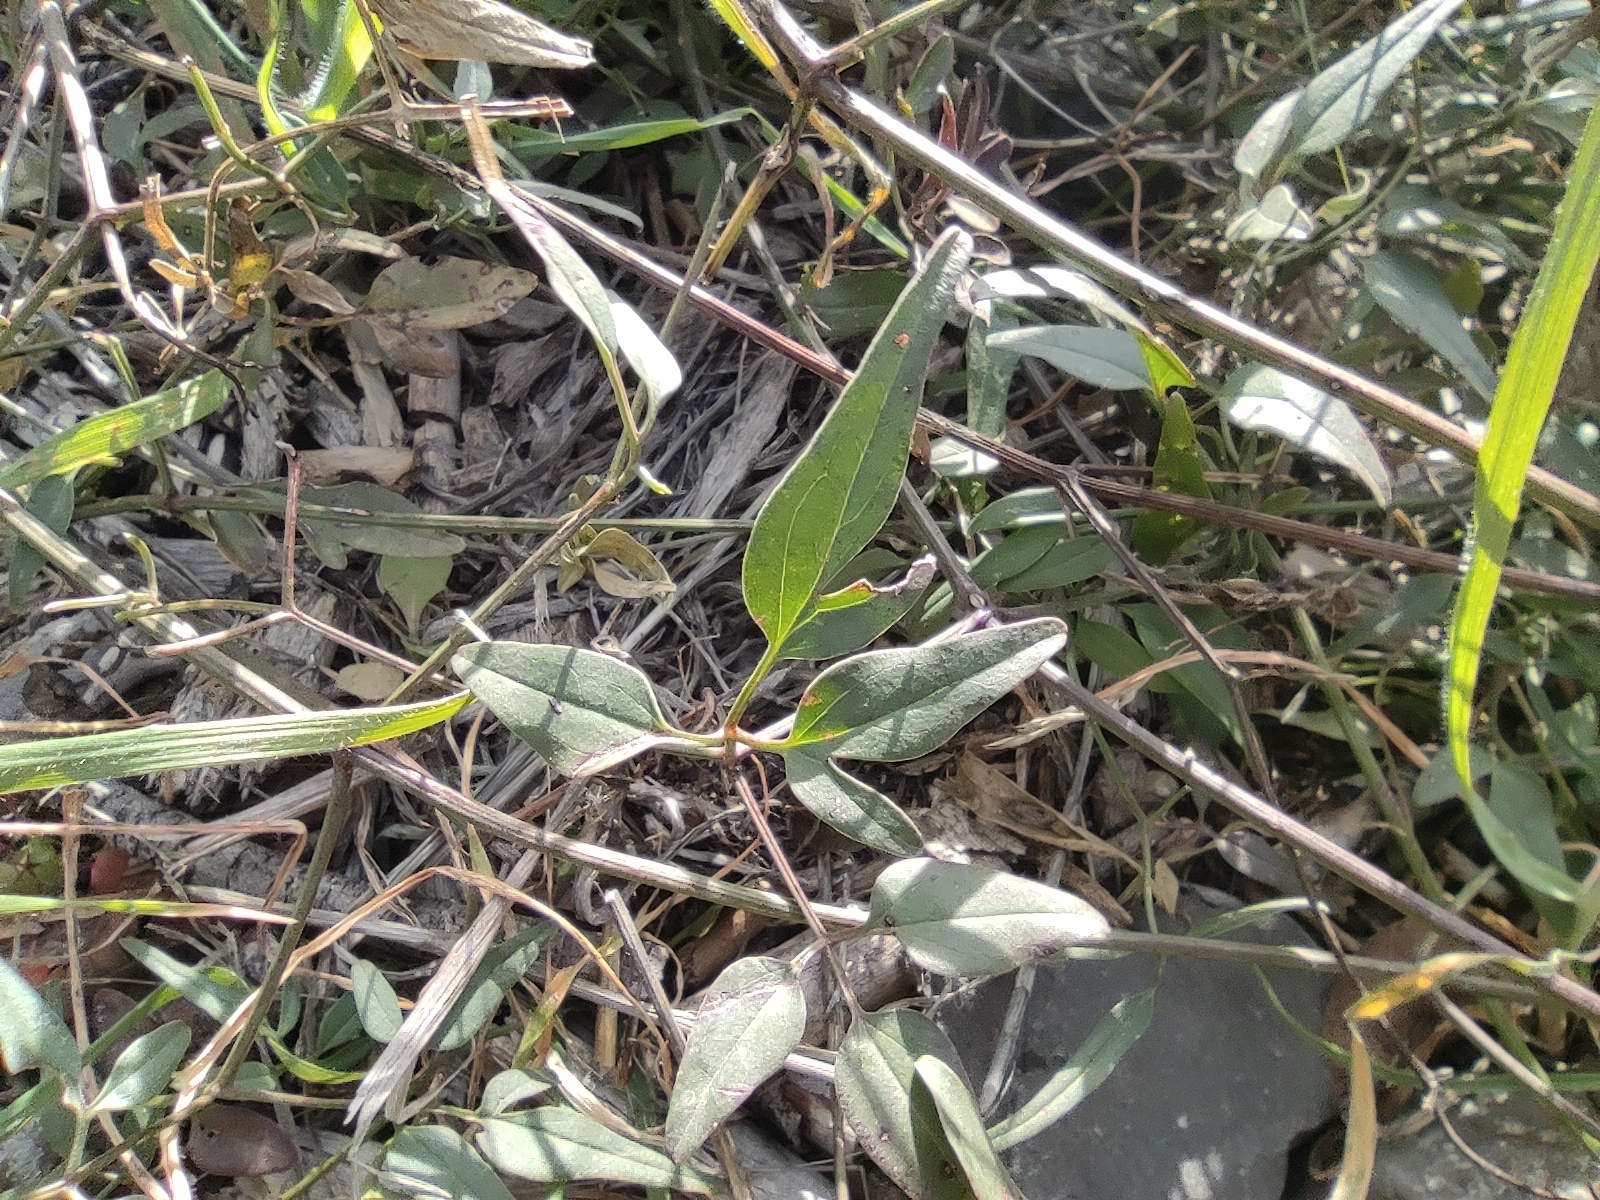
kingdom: Plantae
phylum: Tracheophyta
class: Magnoliopsida
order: Ranunculales
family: Ranunculaceae
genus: Clematis
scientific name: Clematis flammula
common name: Virgin's-bower
